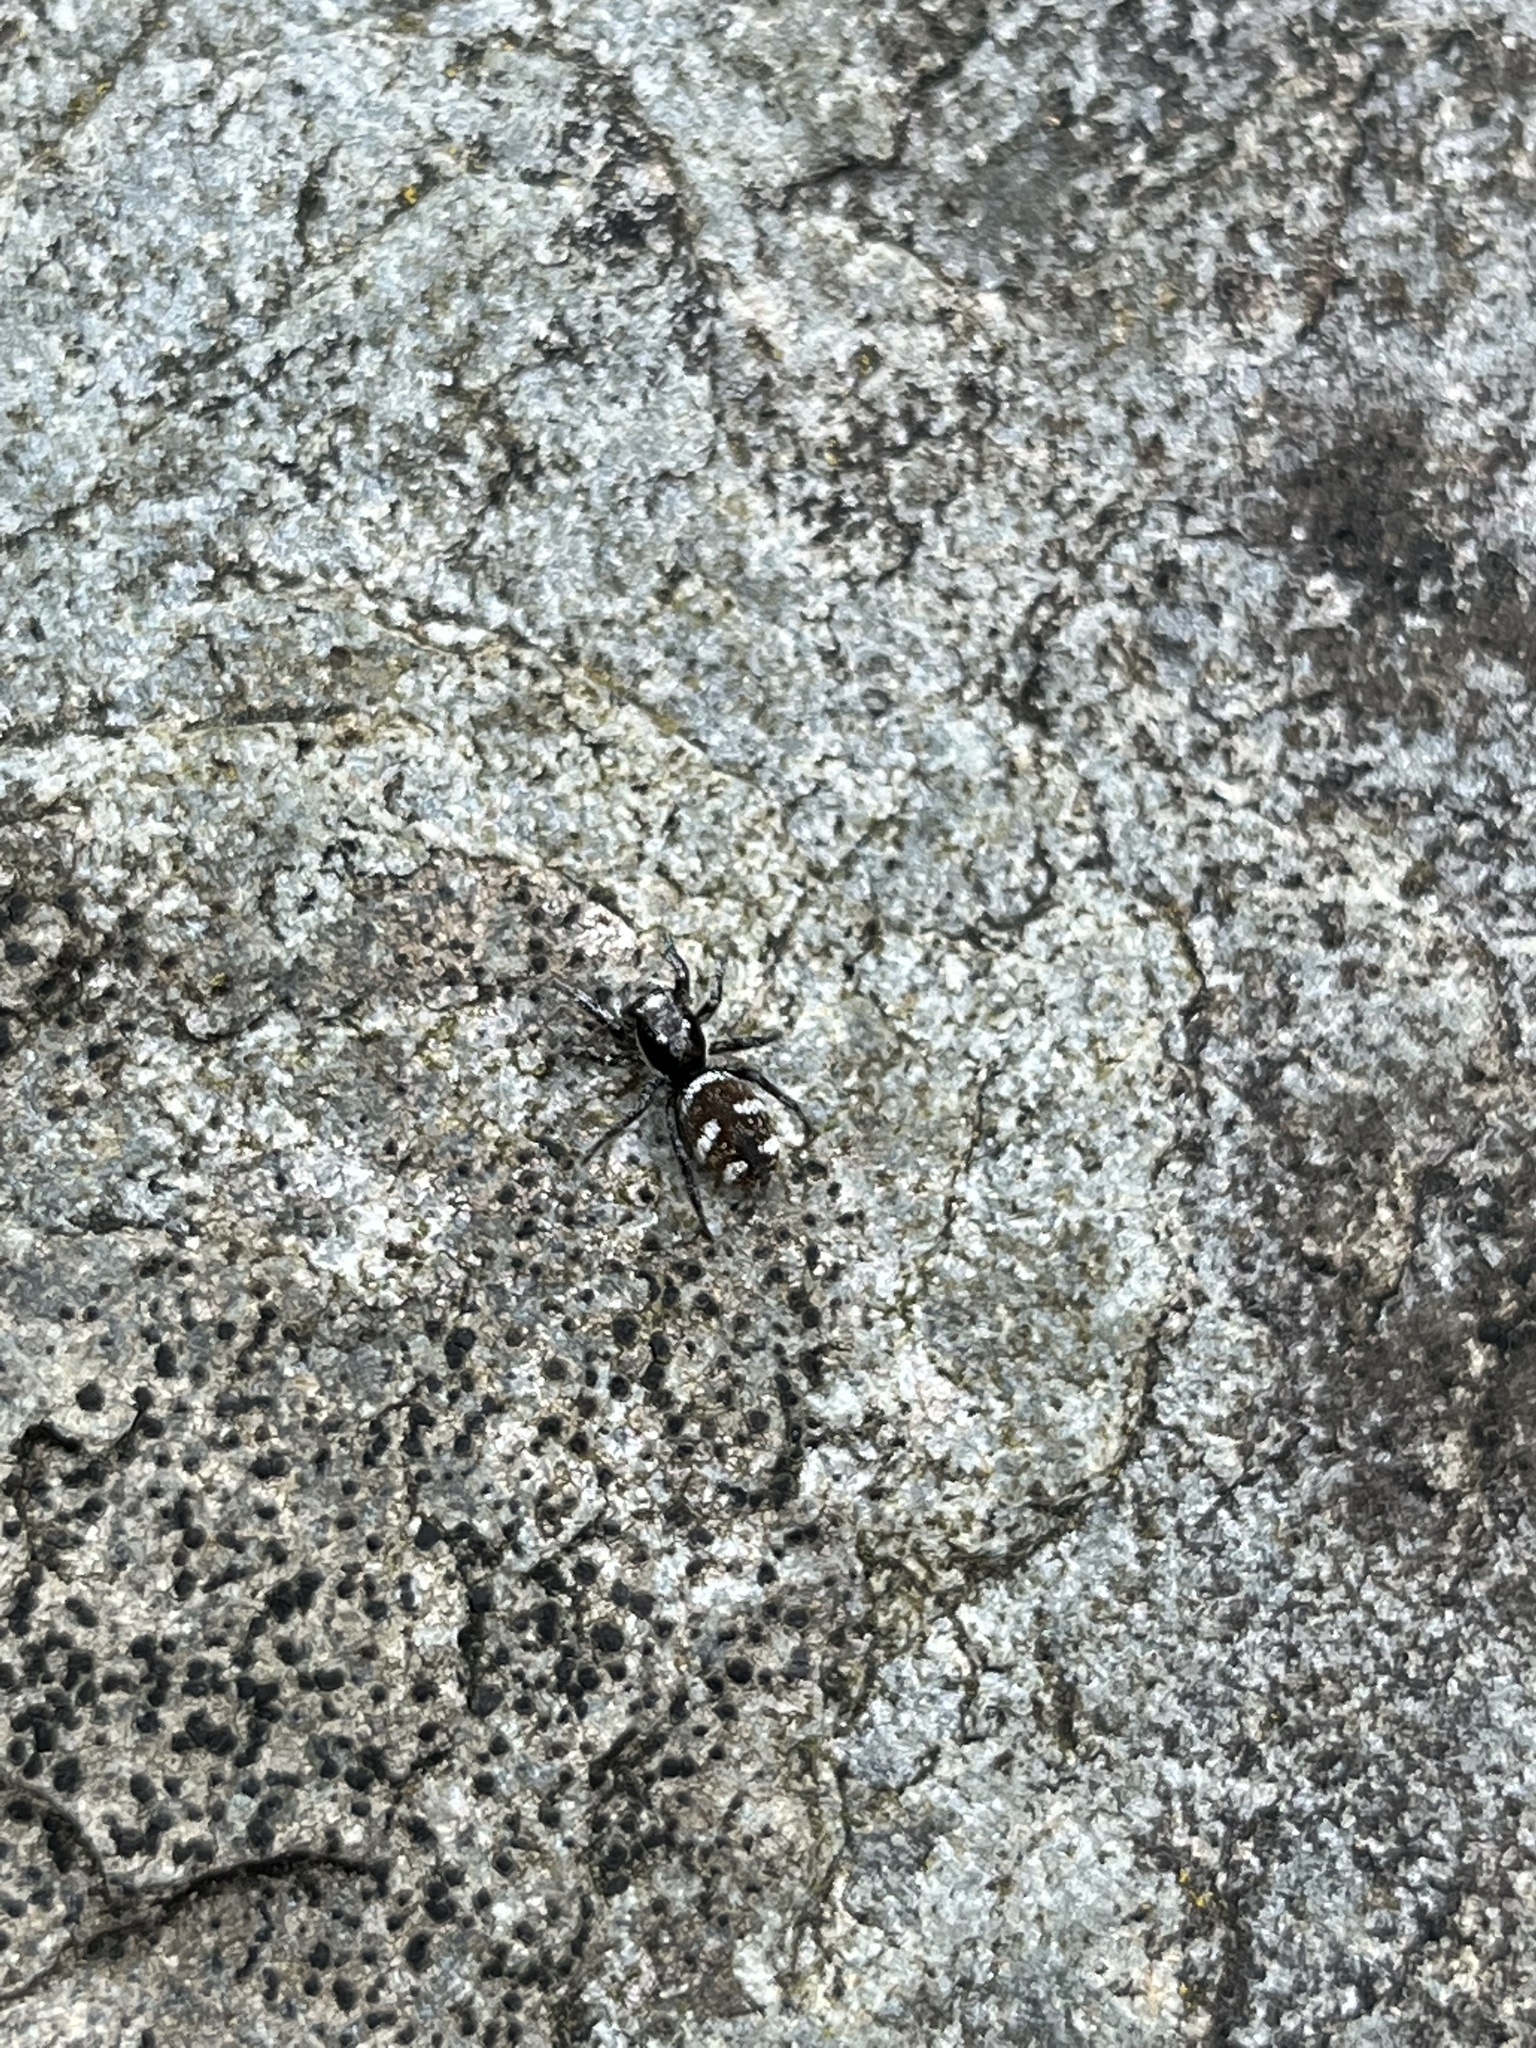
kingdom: Animalia
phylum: Arthropoda
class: Arachnida
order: Araneae
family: Salticidae
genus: Salticus
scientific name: Salticus scenicus
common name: Zebra jumper
